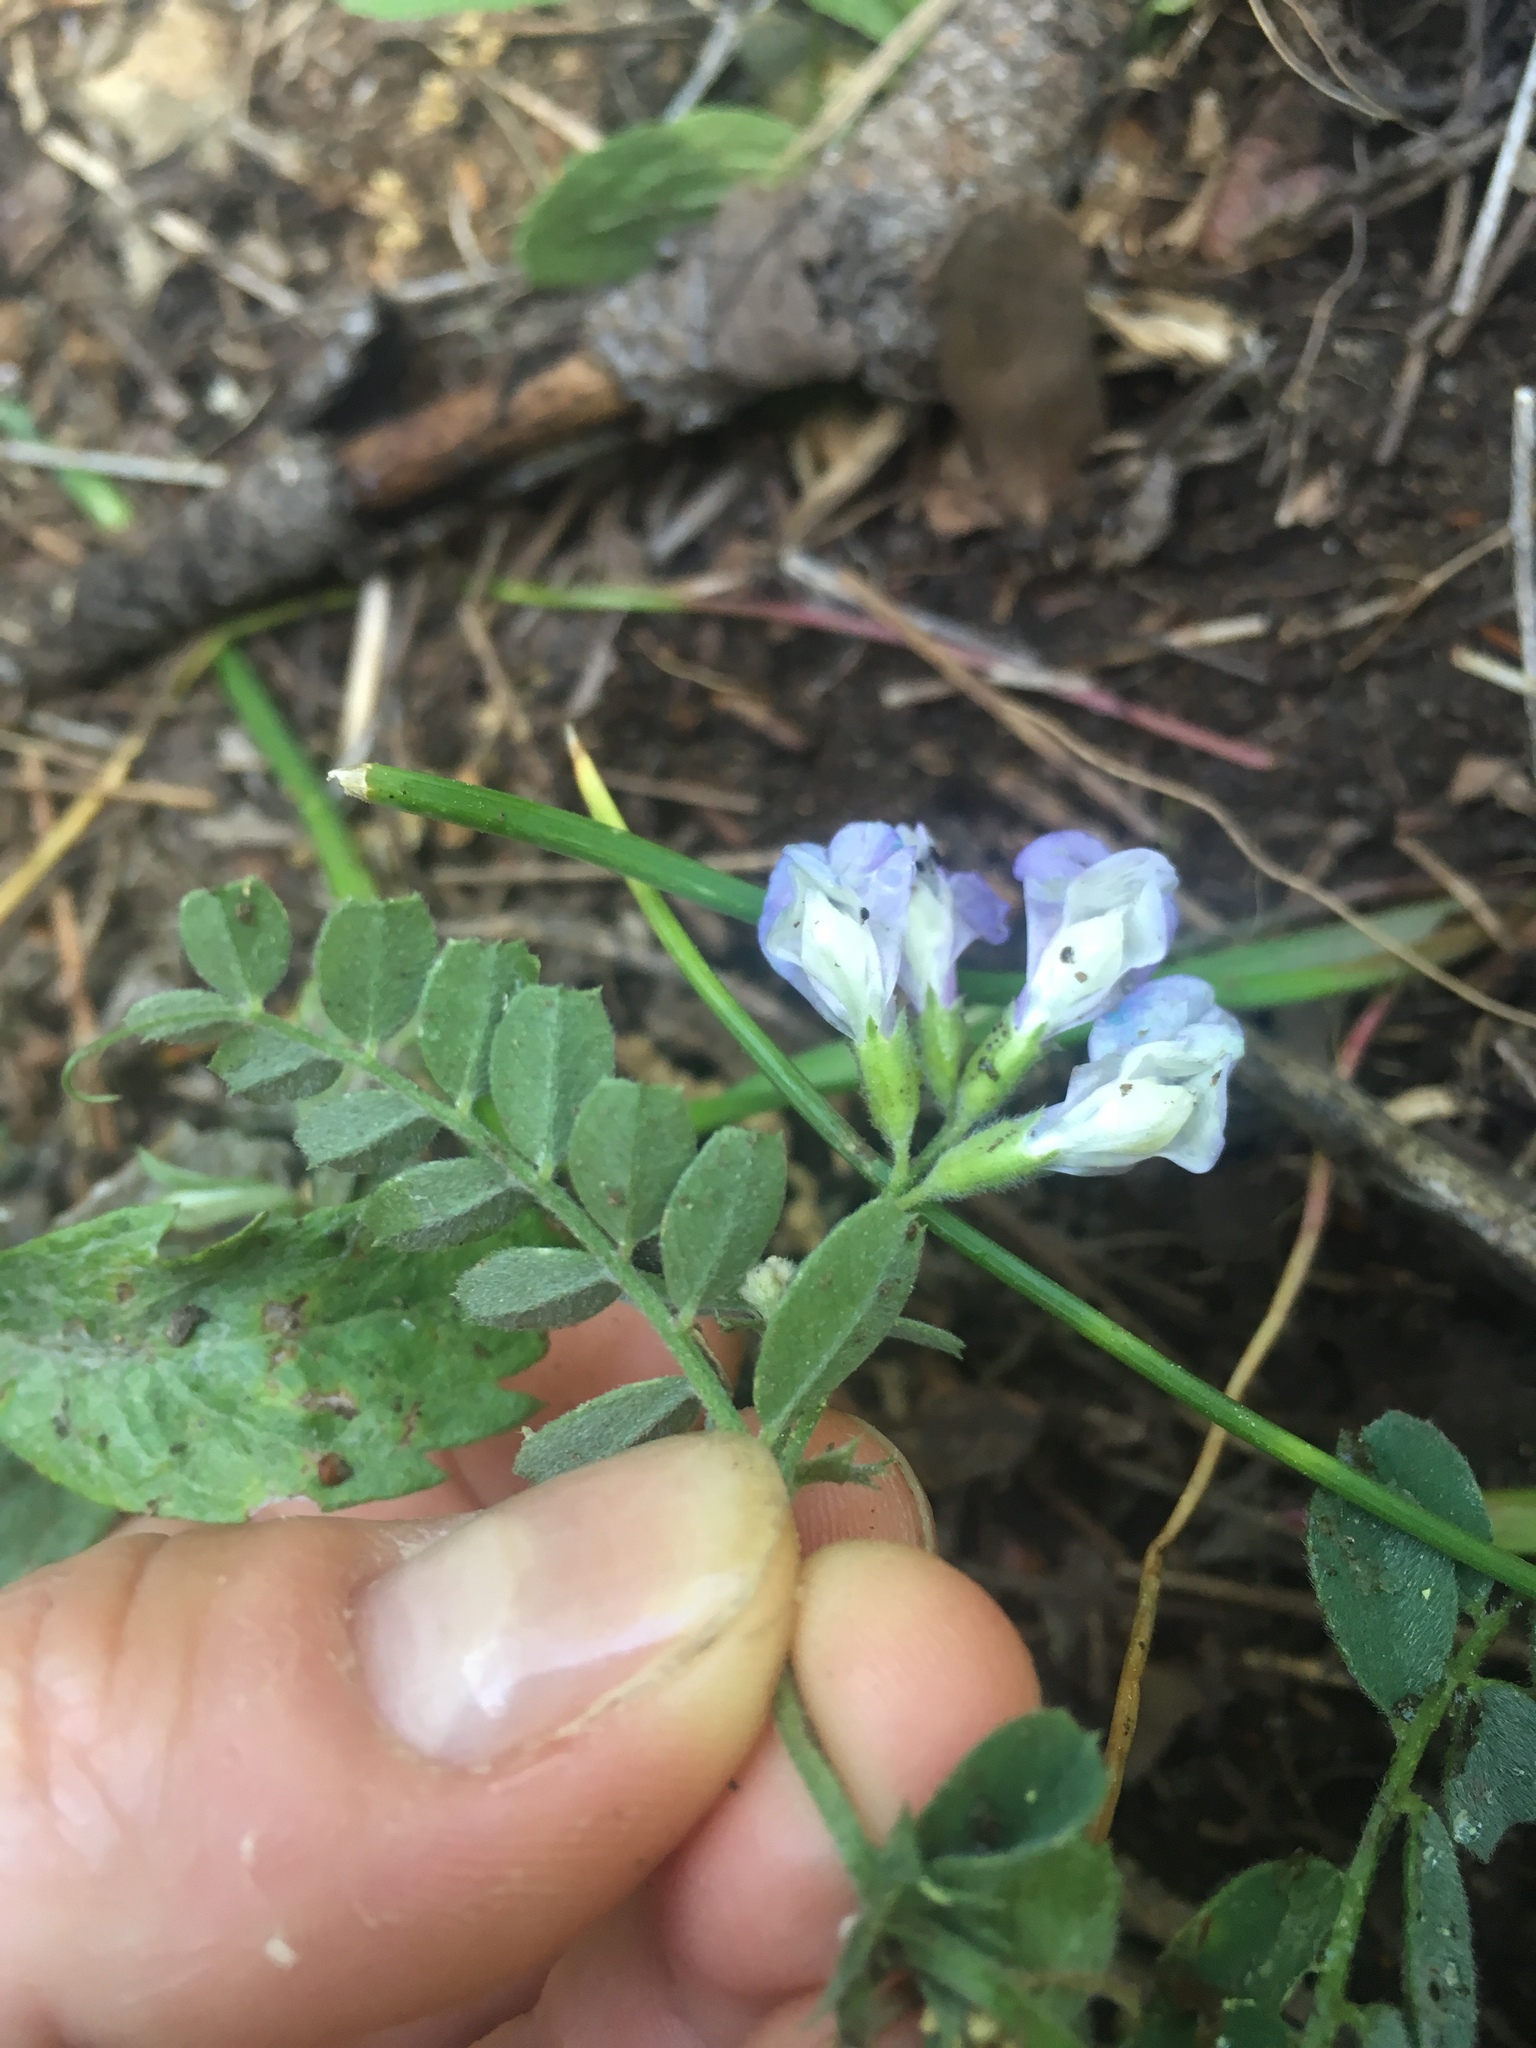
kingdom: Plantae
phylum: Tracheophyta
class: Magnoliopsida
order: Fabales
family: Fabaceae
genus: Vicia
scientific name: Vicia americana
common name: American vetch
